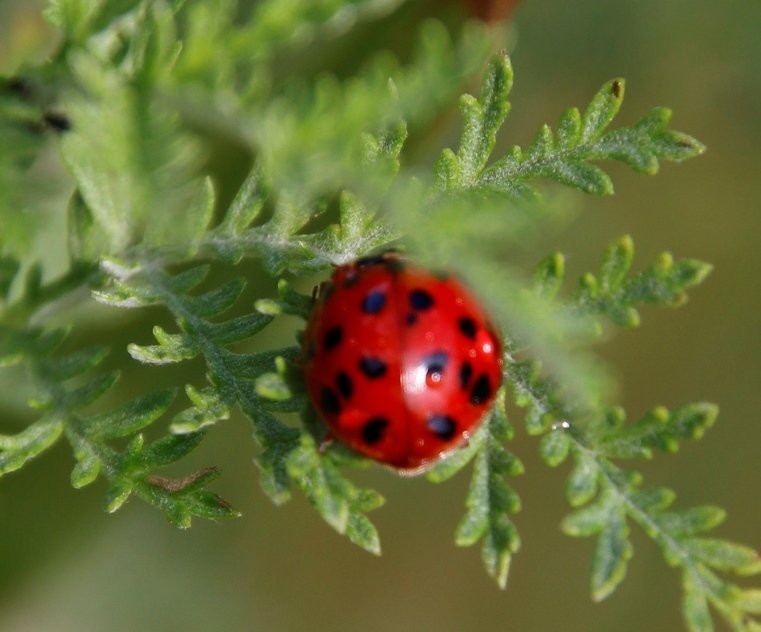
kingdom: Plantae
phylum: Tracheophyta
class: Magnoliopsida
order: Asterales
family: Asteraceae
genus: Artemisia
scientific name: Artemisia afra
